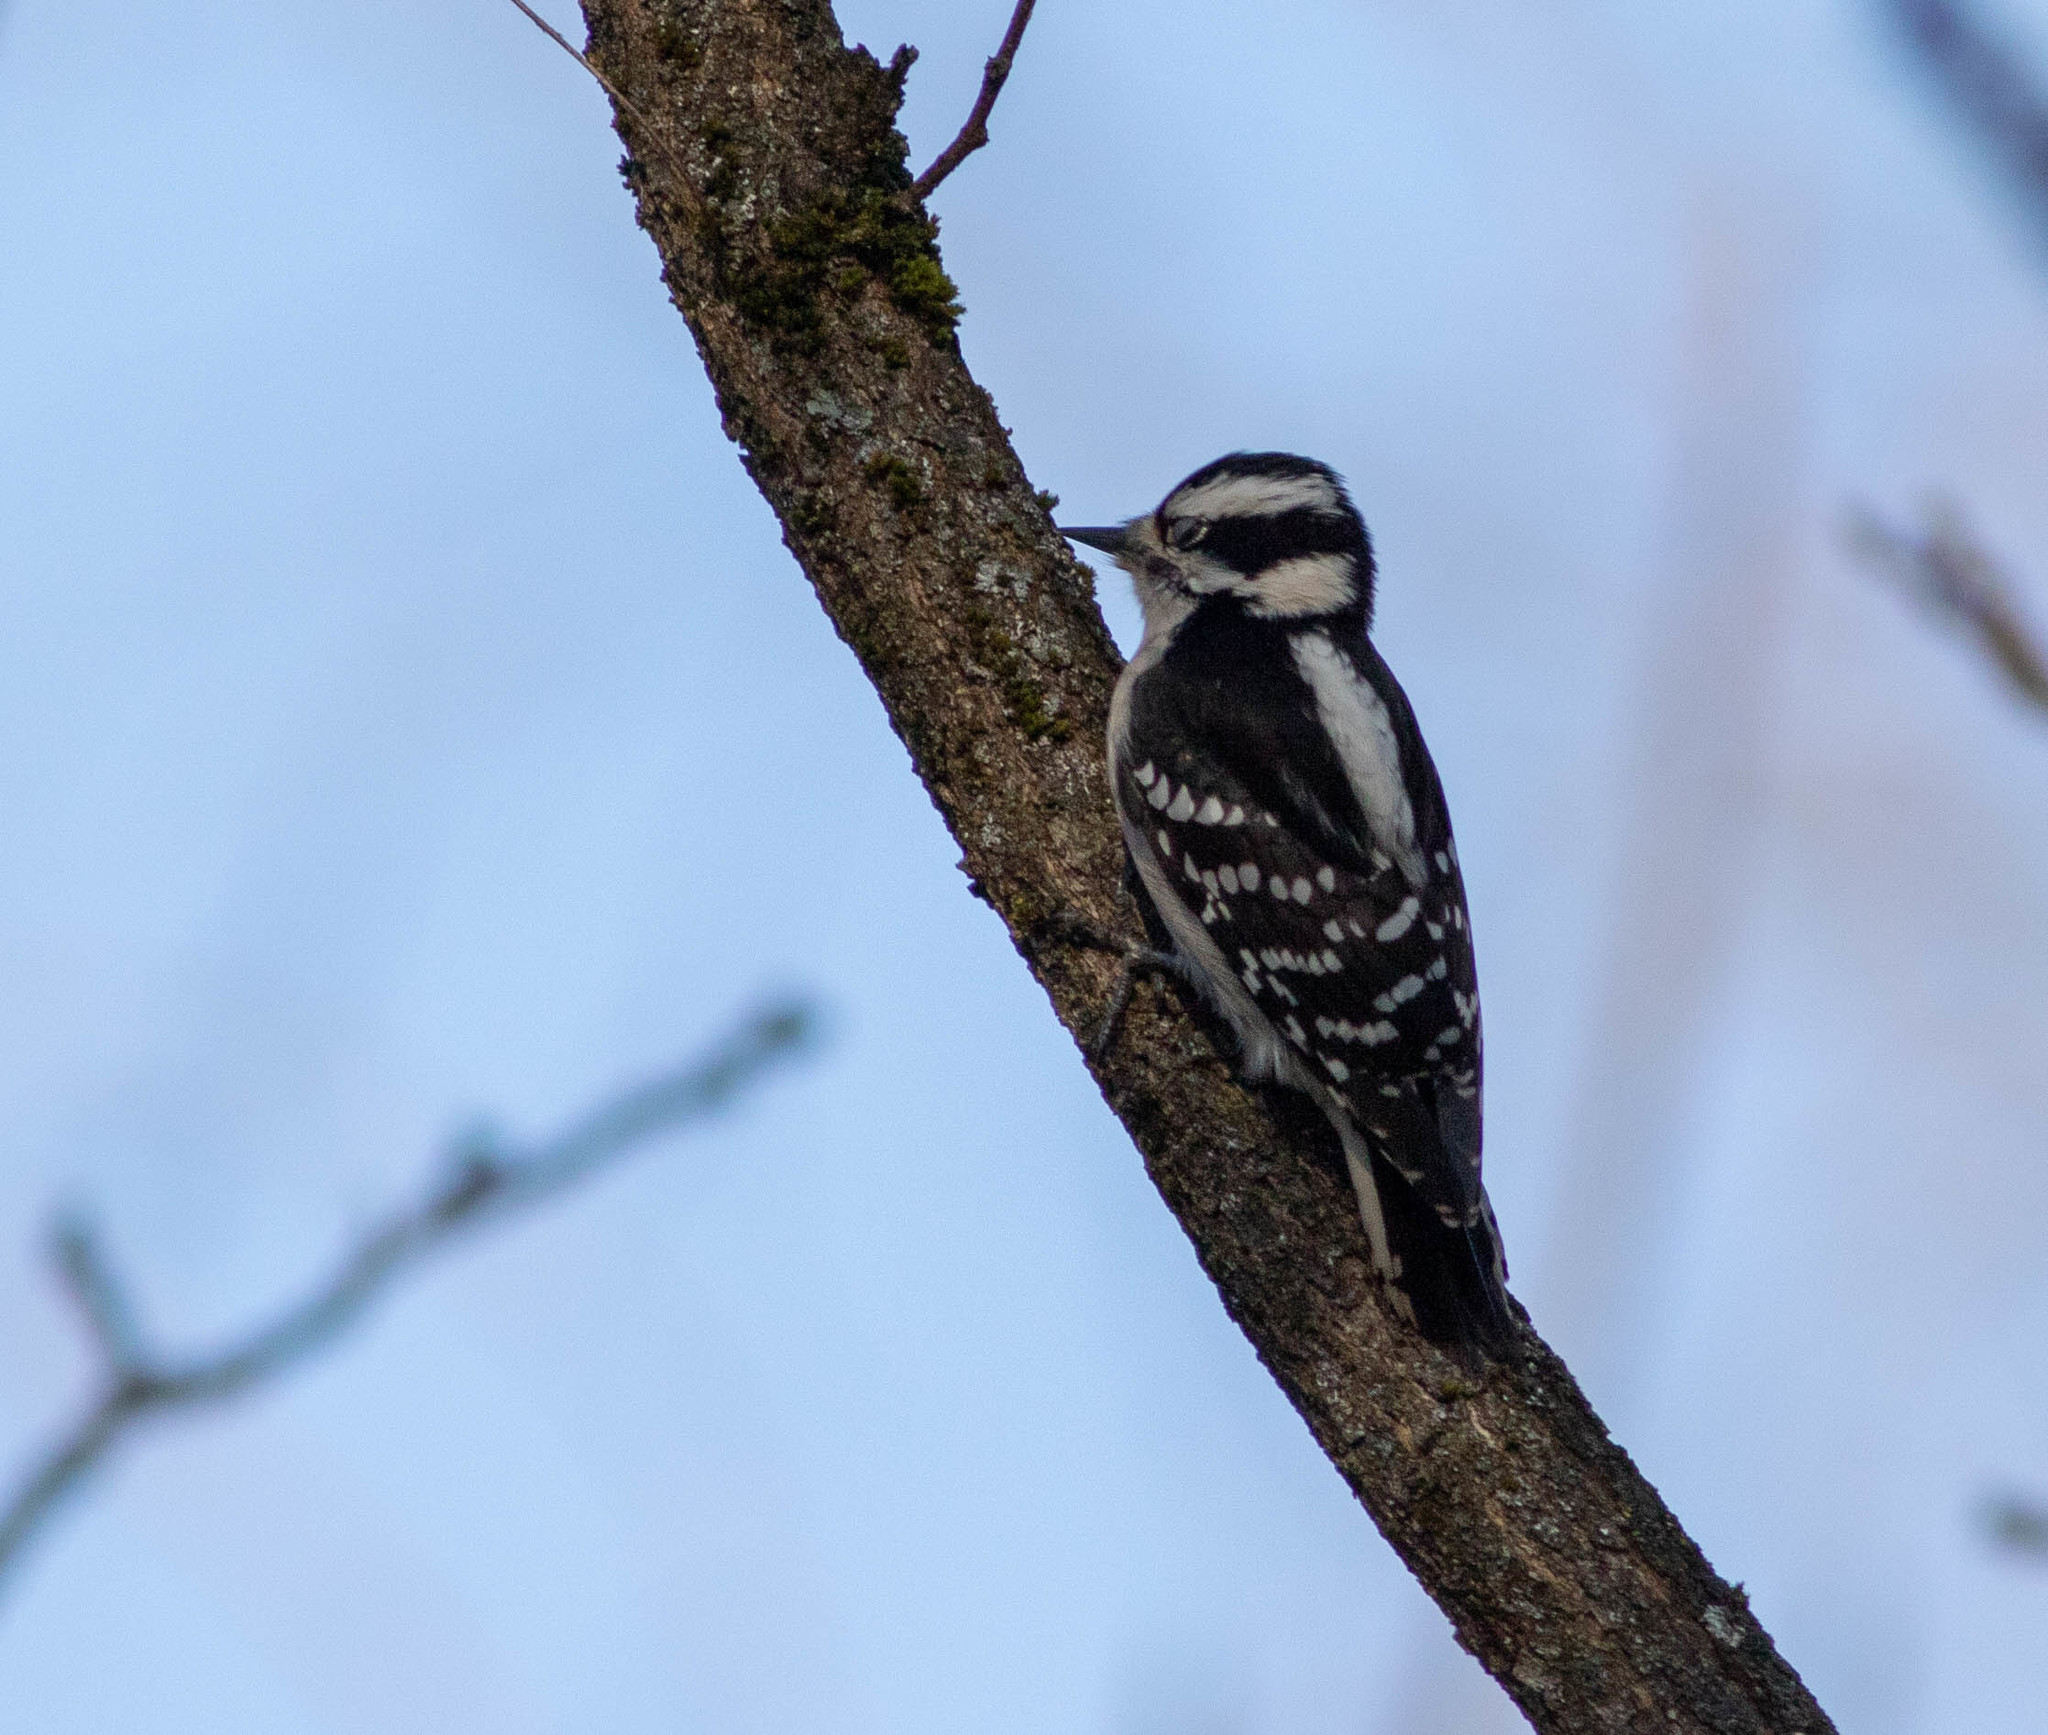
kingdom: Animalia
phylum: Chordata
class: Aves
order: Piciformes
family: Picidae
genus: Dryobates
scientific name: Dryobates pubescens
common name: Downy woodpecker
